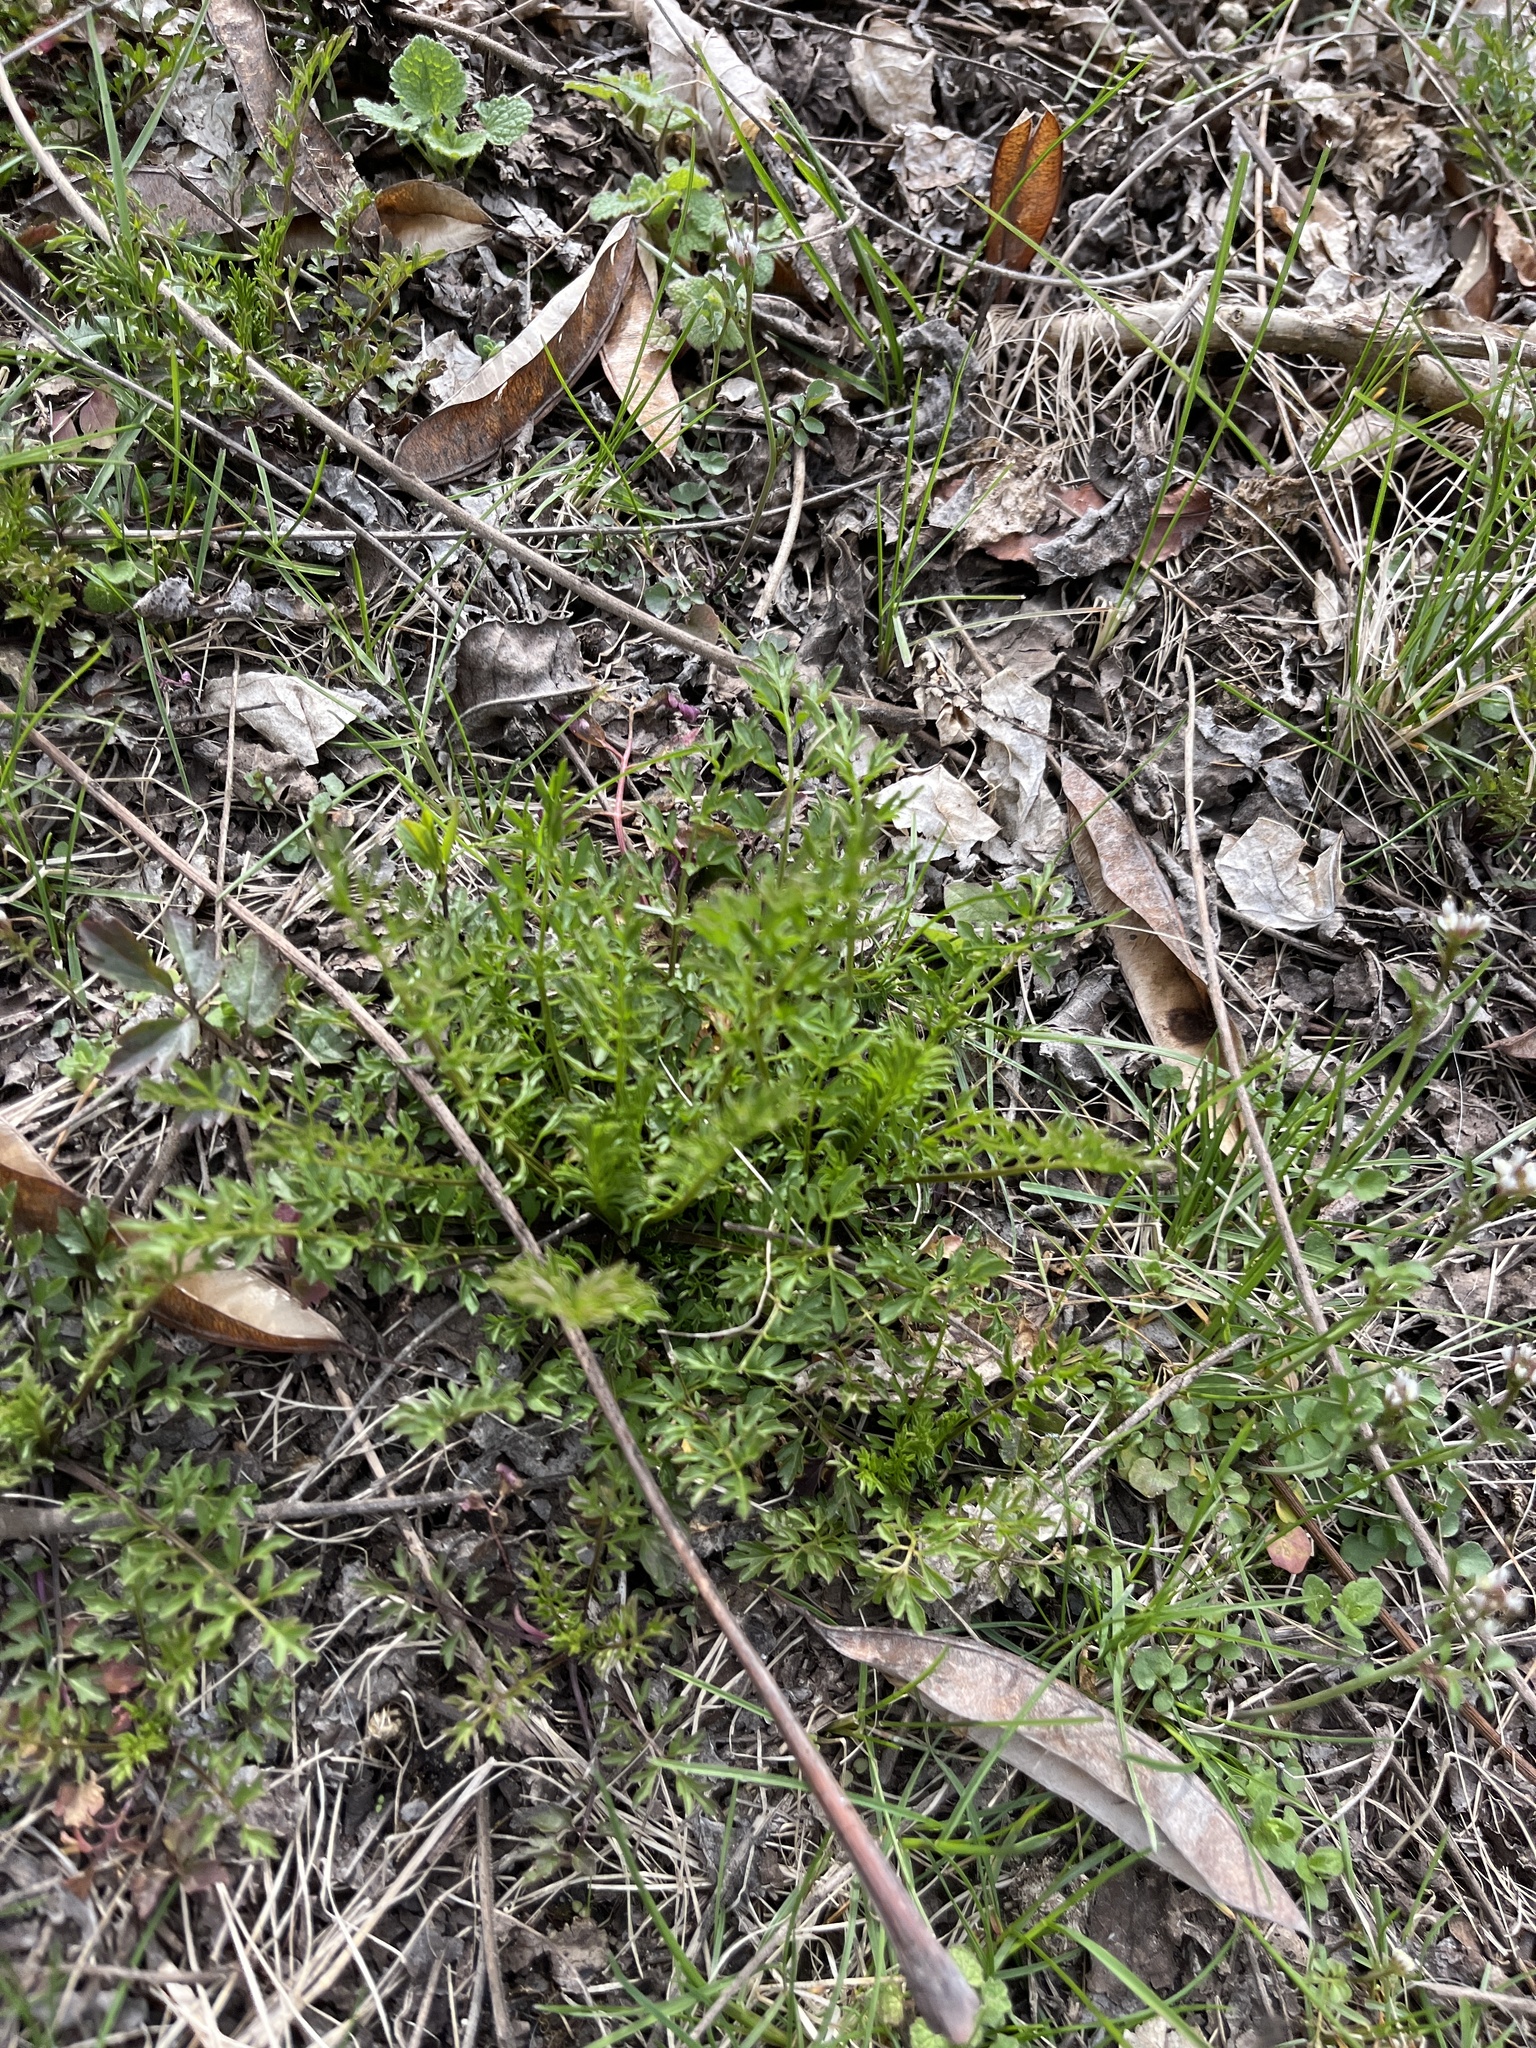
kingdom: Plantae
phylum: Tracheophyta
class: Magnoliopsida
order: Brassicales
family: Brassicaceae
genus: Cardamine
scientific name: Cardamine impatiens
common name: Narrow-leaved bitter-cress
